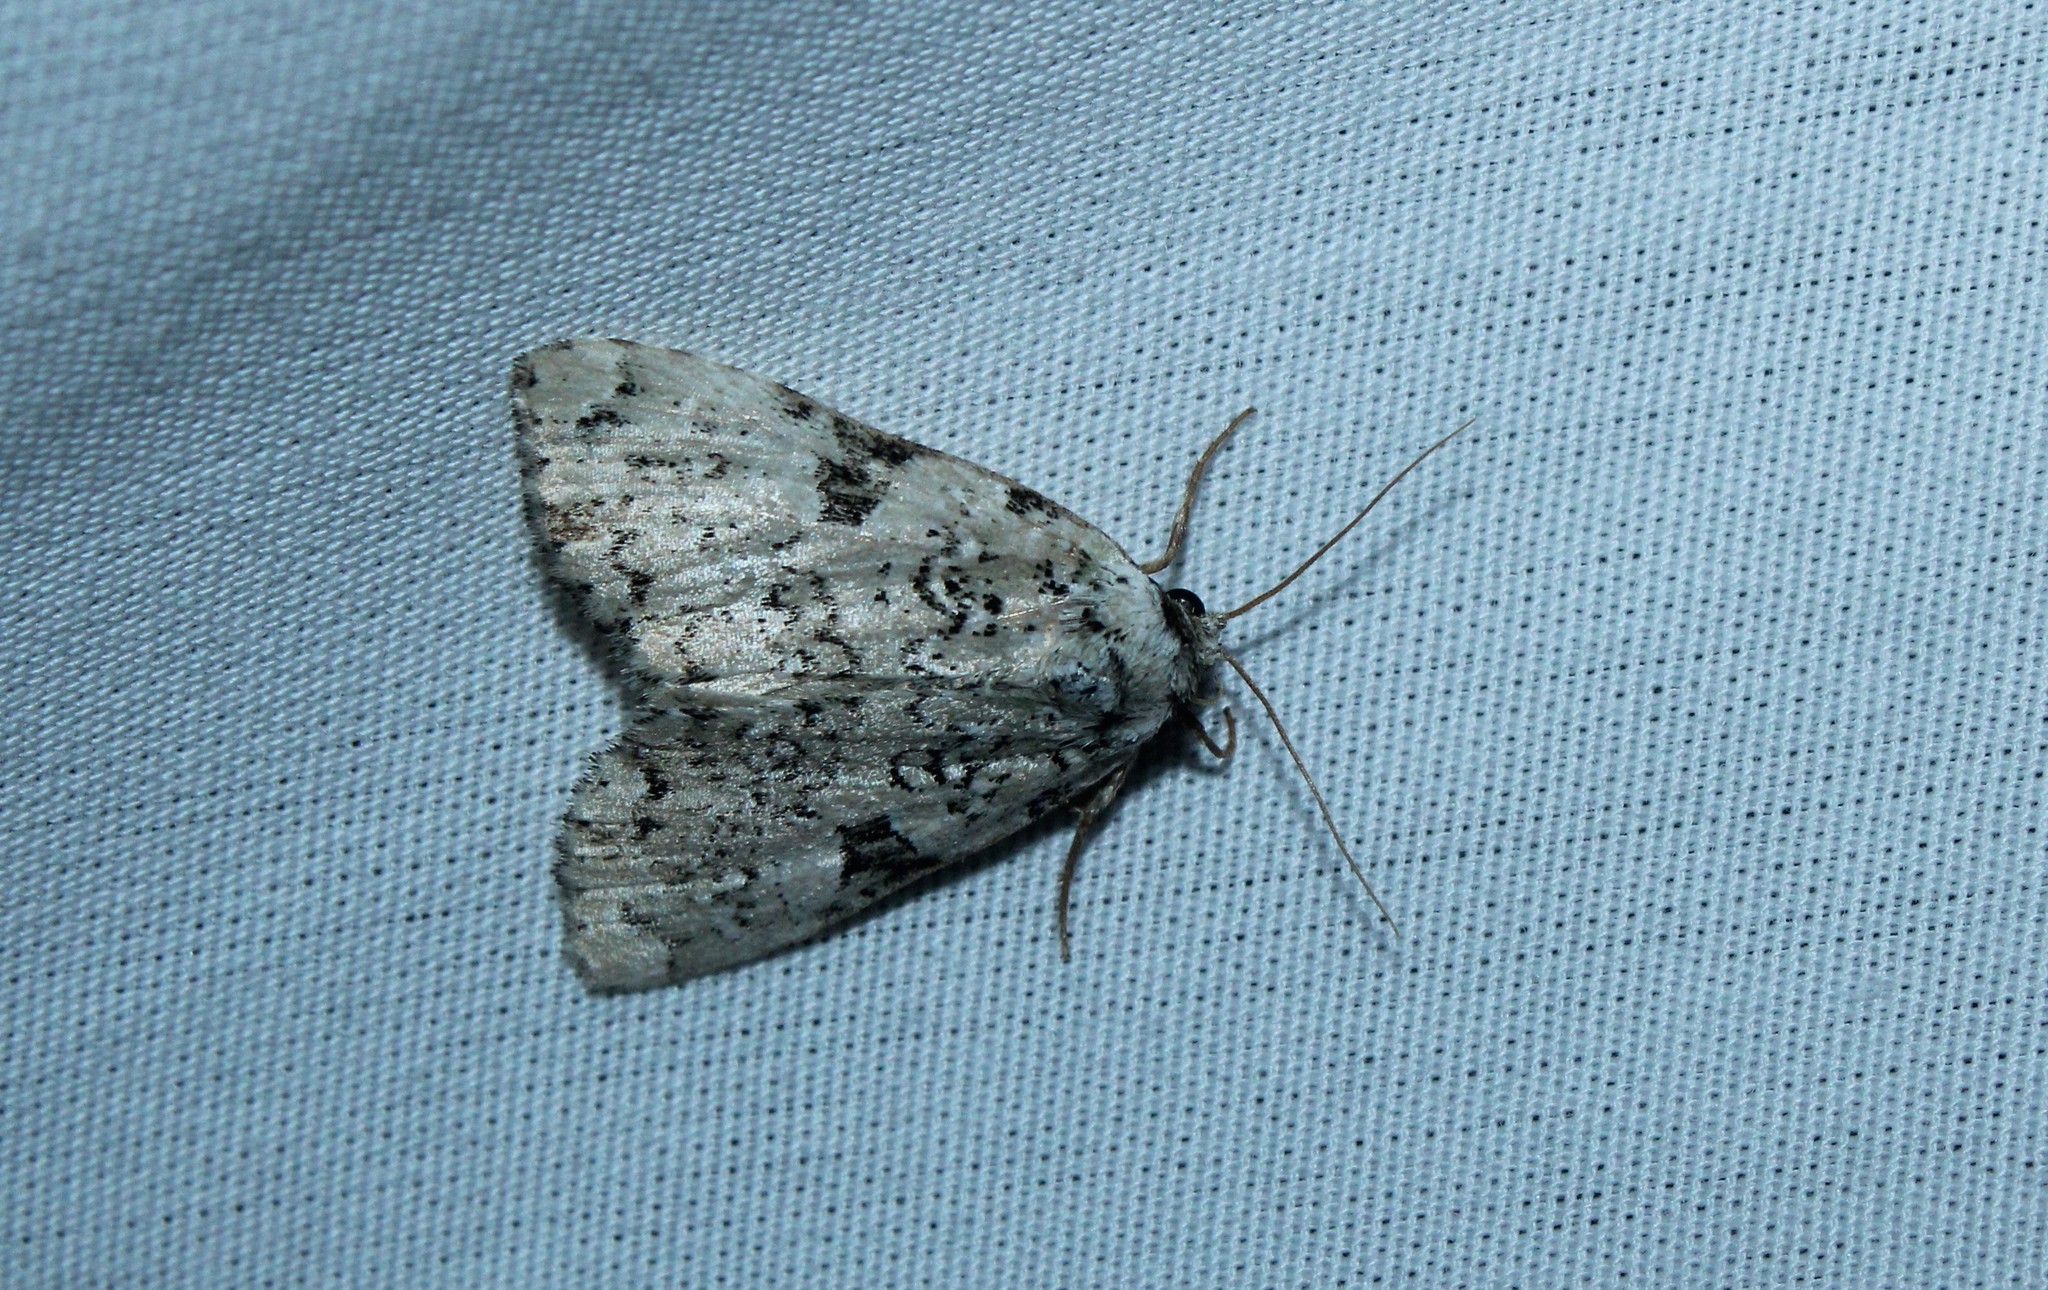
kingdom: Animalia
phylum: Arthropoda
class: Insecta
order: Lepidoptera
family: Noctuidae
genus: Leuconycta
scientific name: Leuconycta diphteroides
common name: Green leuconycta moth
